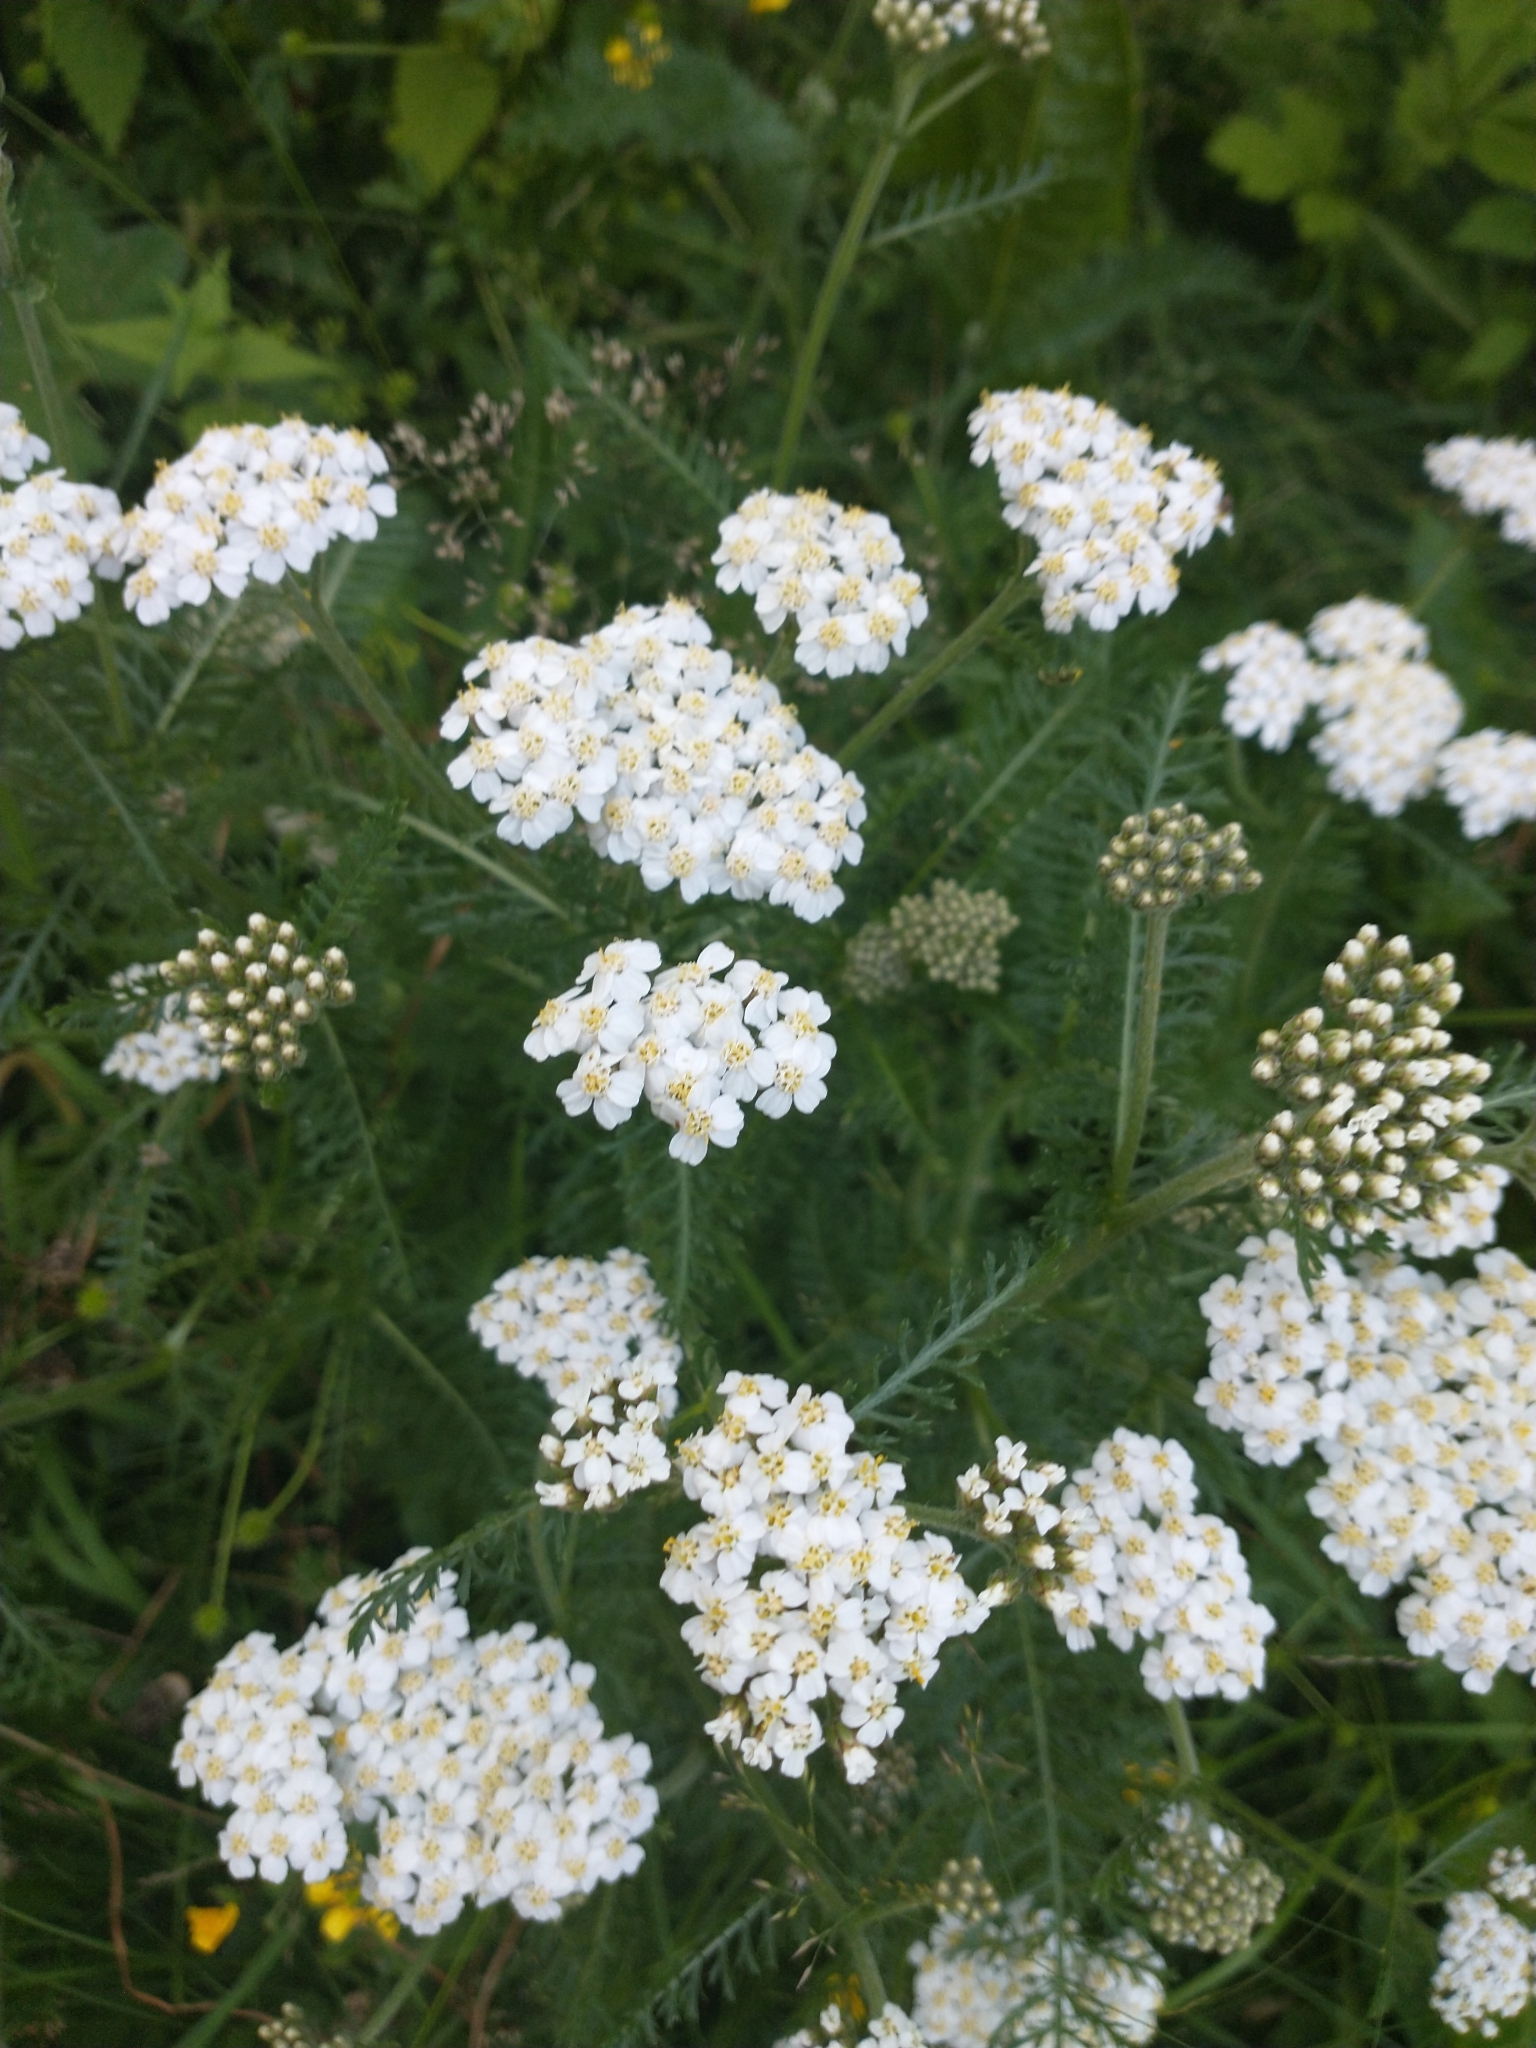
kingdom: Plantae
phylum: Tracheophyta
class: Magnoliopsida
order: Asterales
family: Asteraceae
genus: Achillea
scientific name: Achillea millefolium
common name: Yarrow
